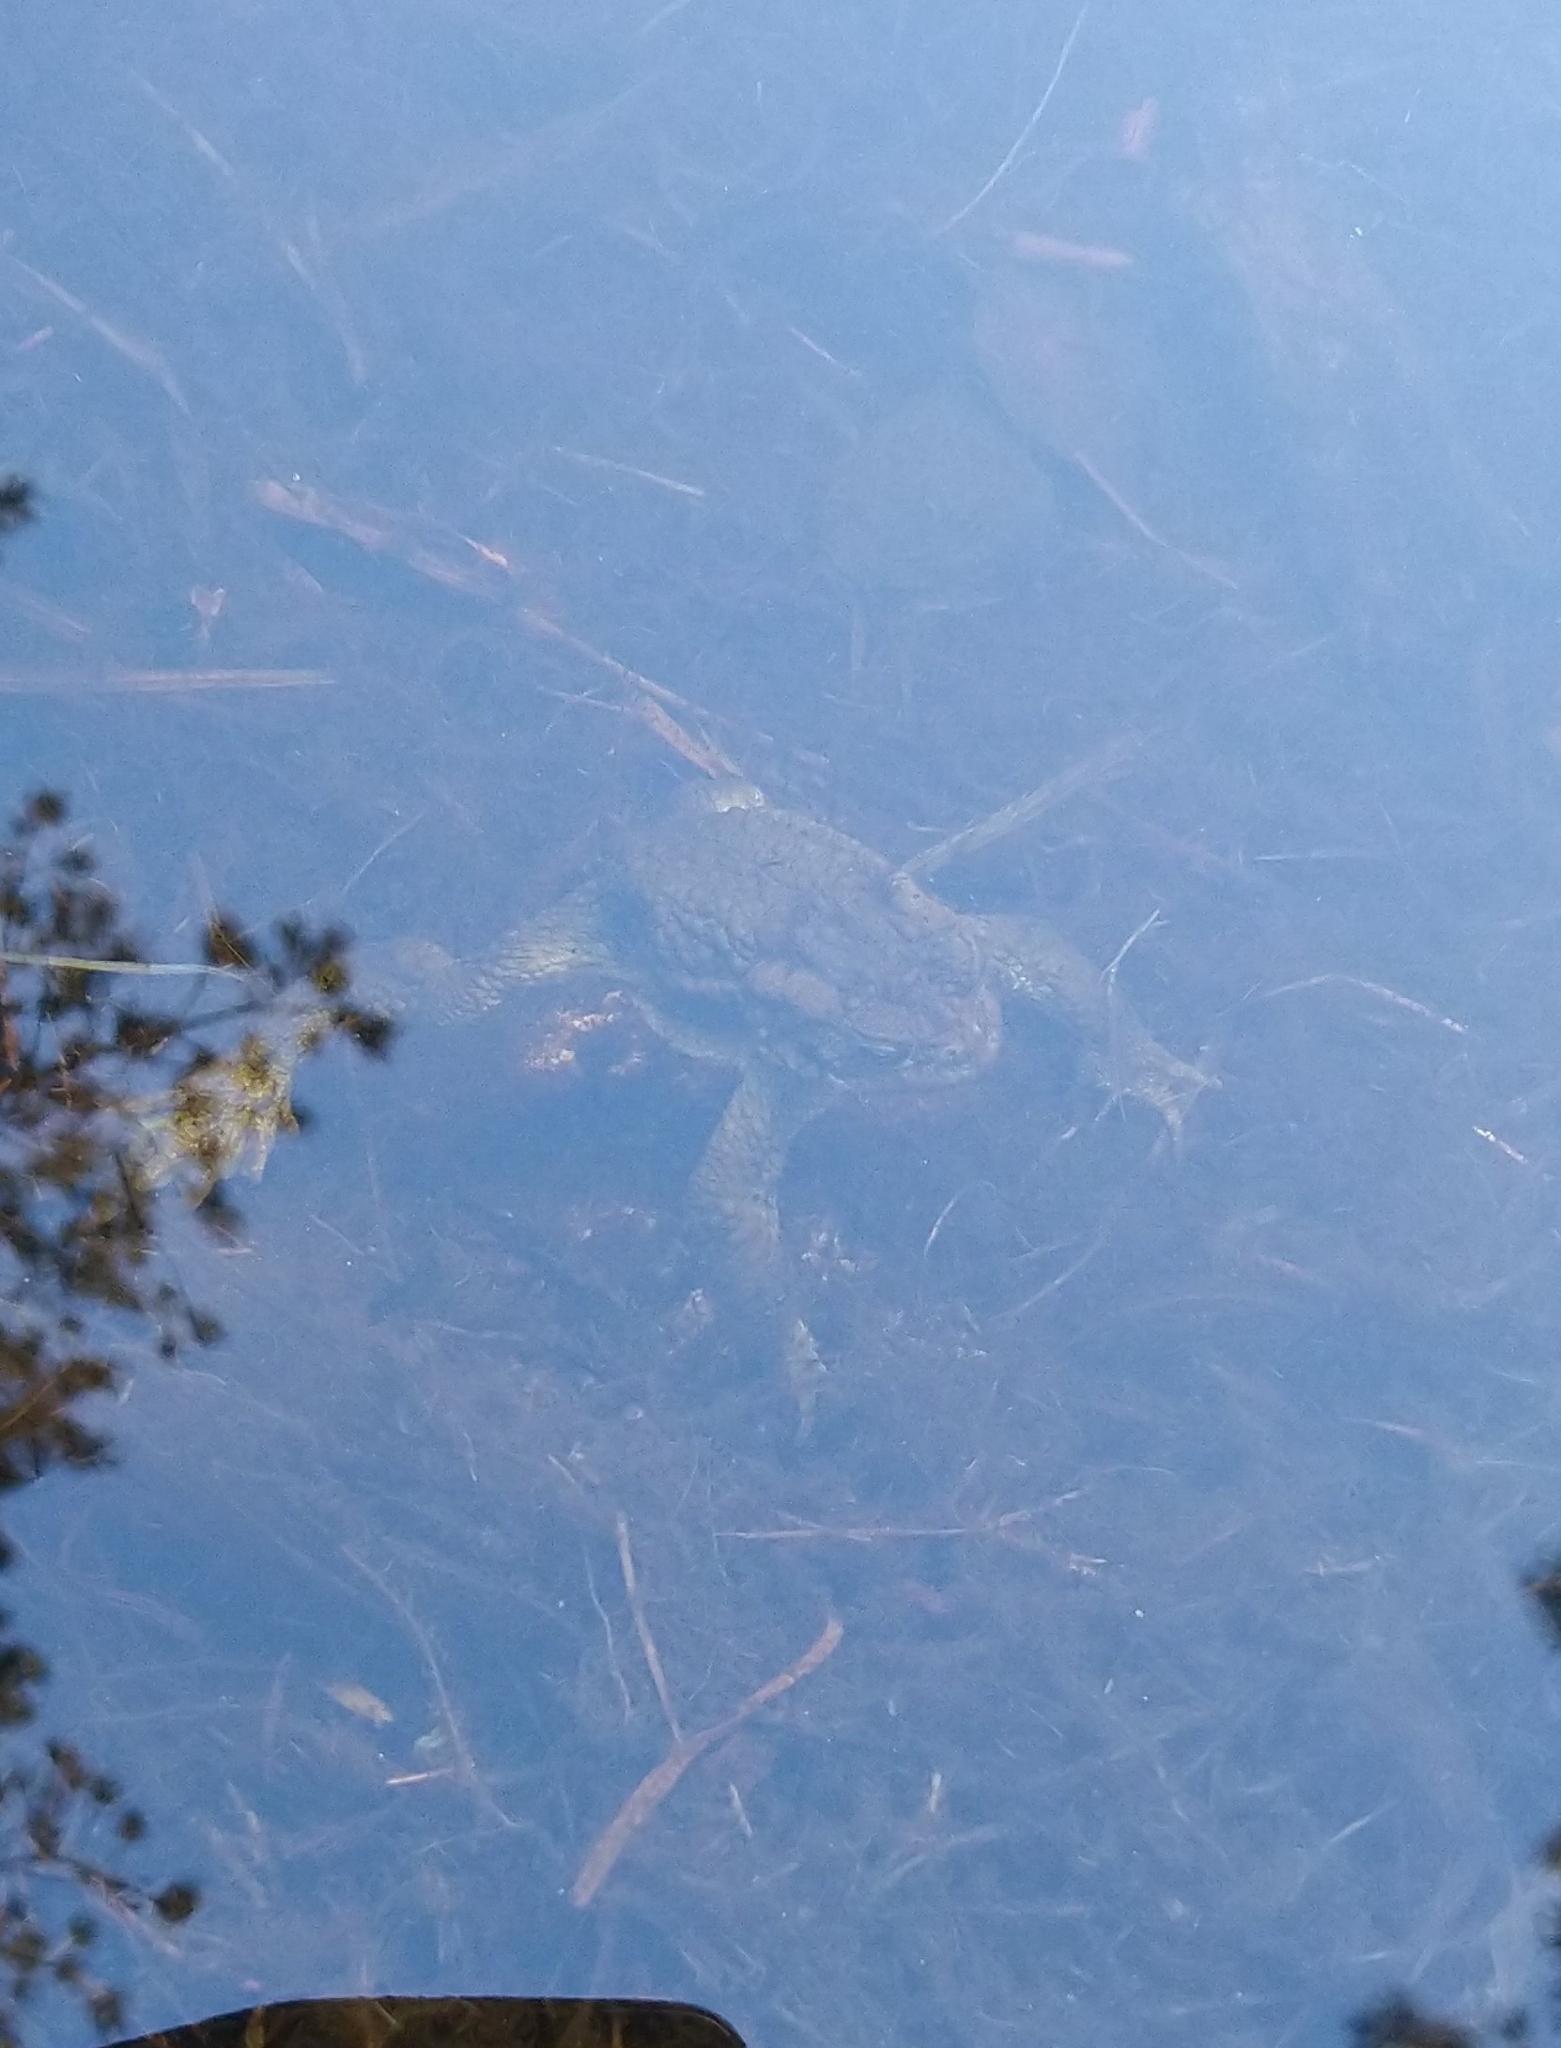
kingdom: Animalia
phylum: Chordata
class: Amphibia
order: Anura
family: Bufonidae
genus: Bufo
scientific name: Bufo bufo
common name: Common toad
